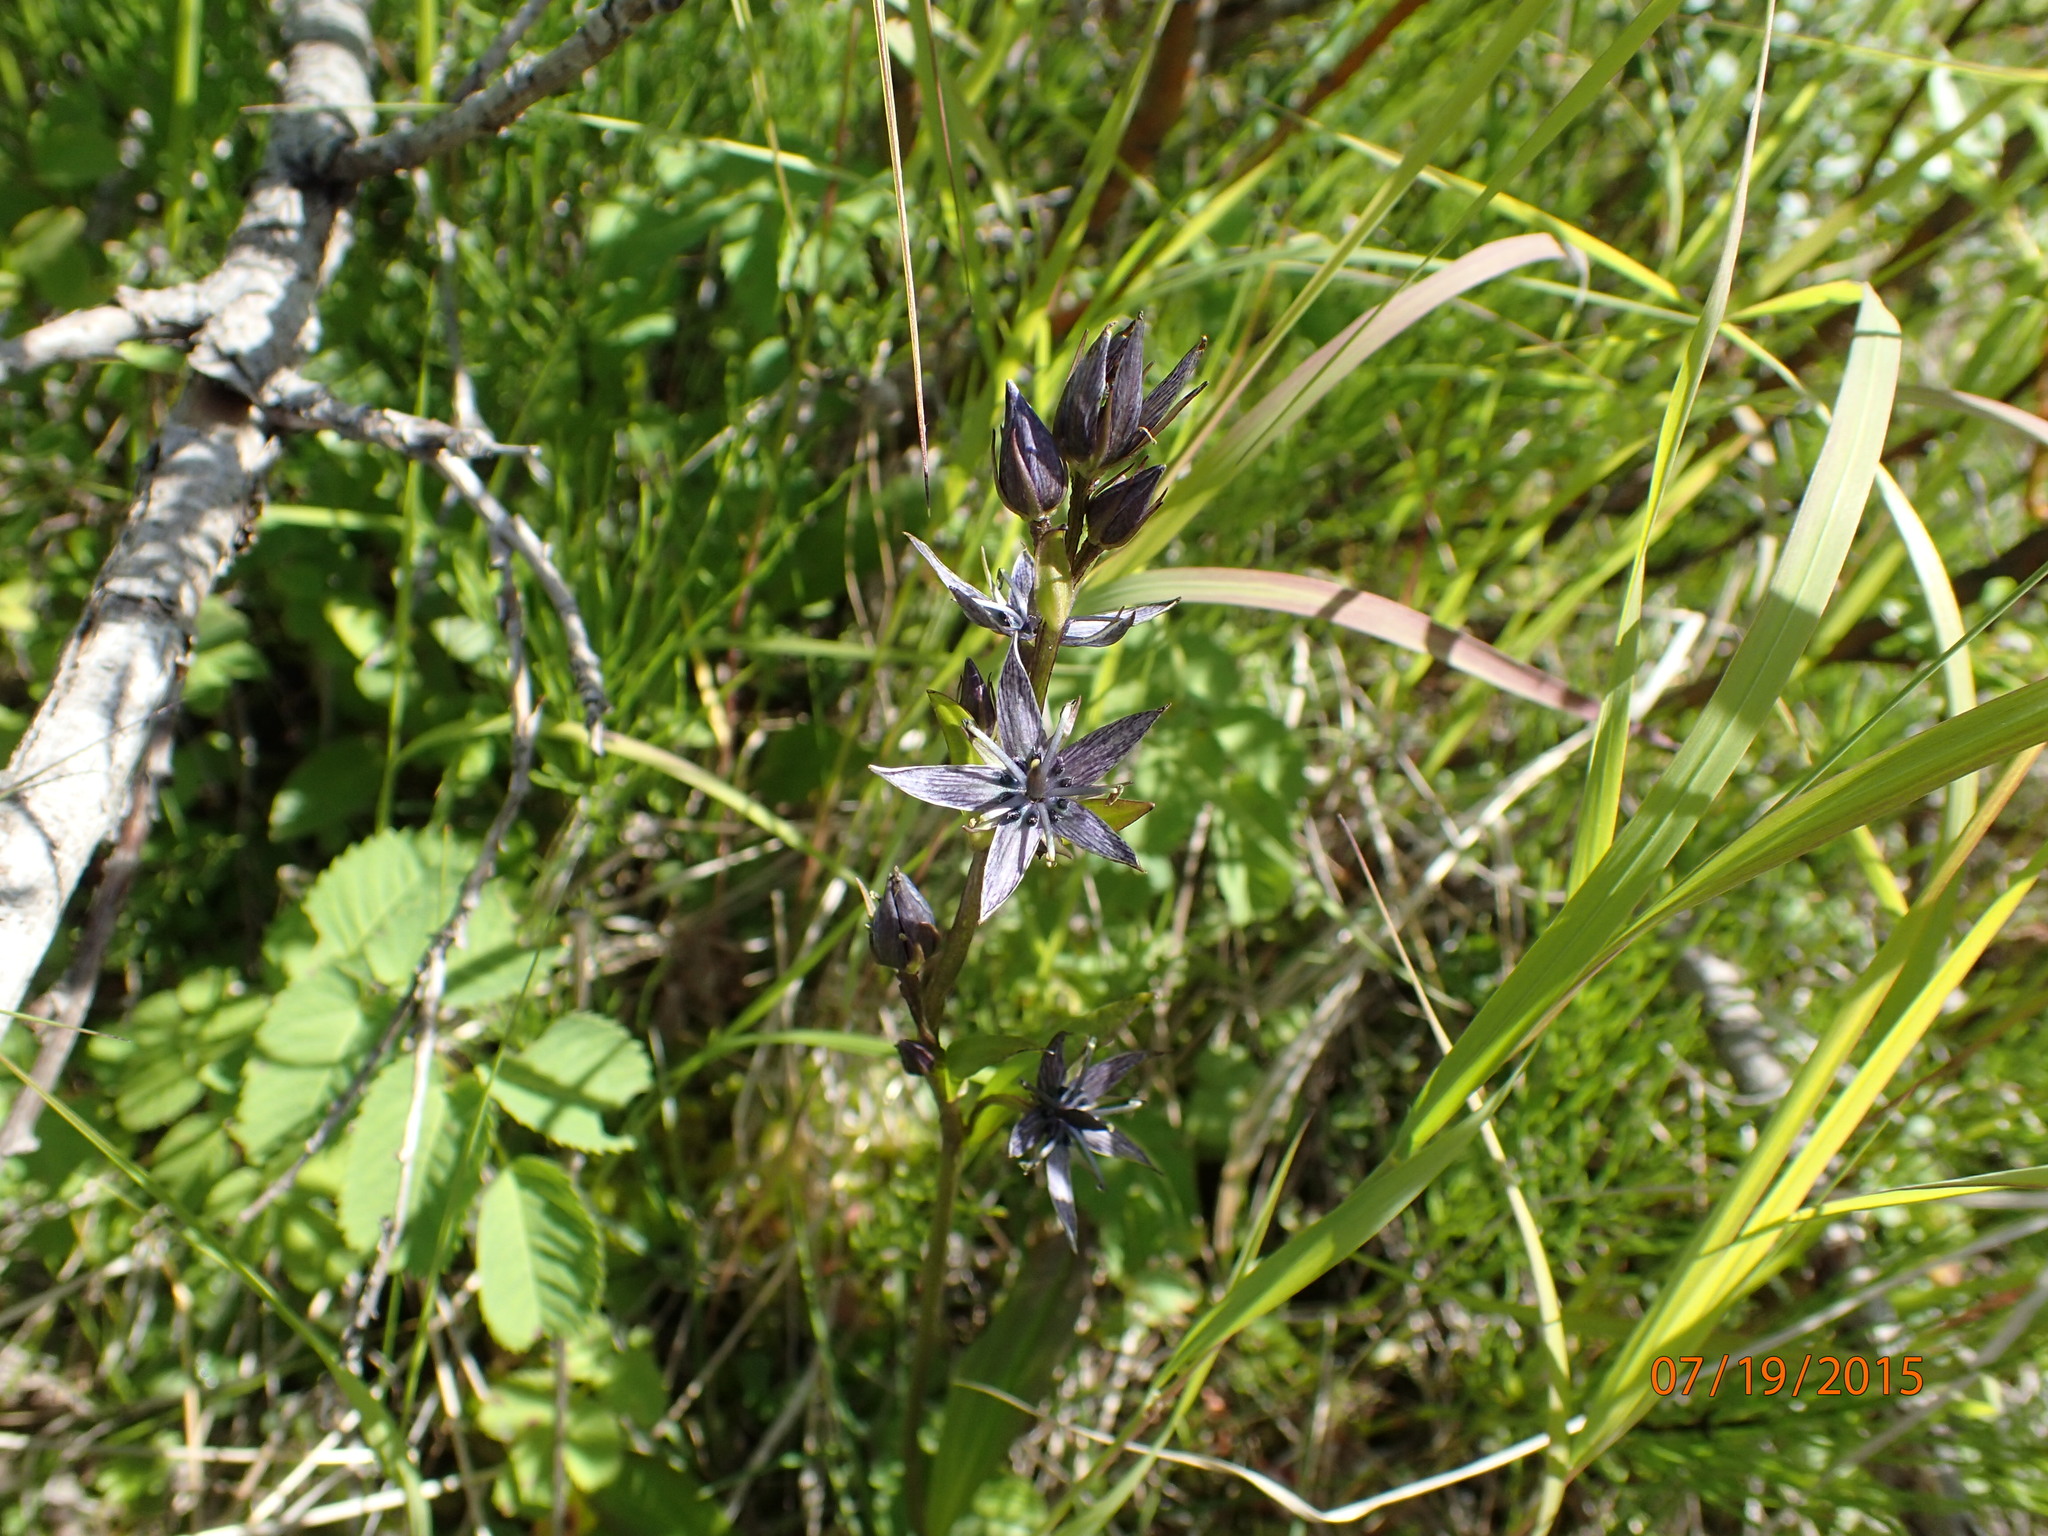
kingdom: Plantae
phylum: Tracheophyta
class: Magnoliopsida
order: Gentianales
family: Gentianaceae
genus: Swertia
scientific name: Swertia perennis
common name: Alpine bog swertia
